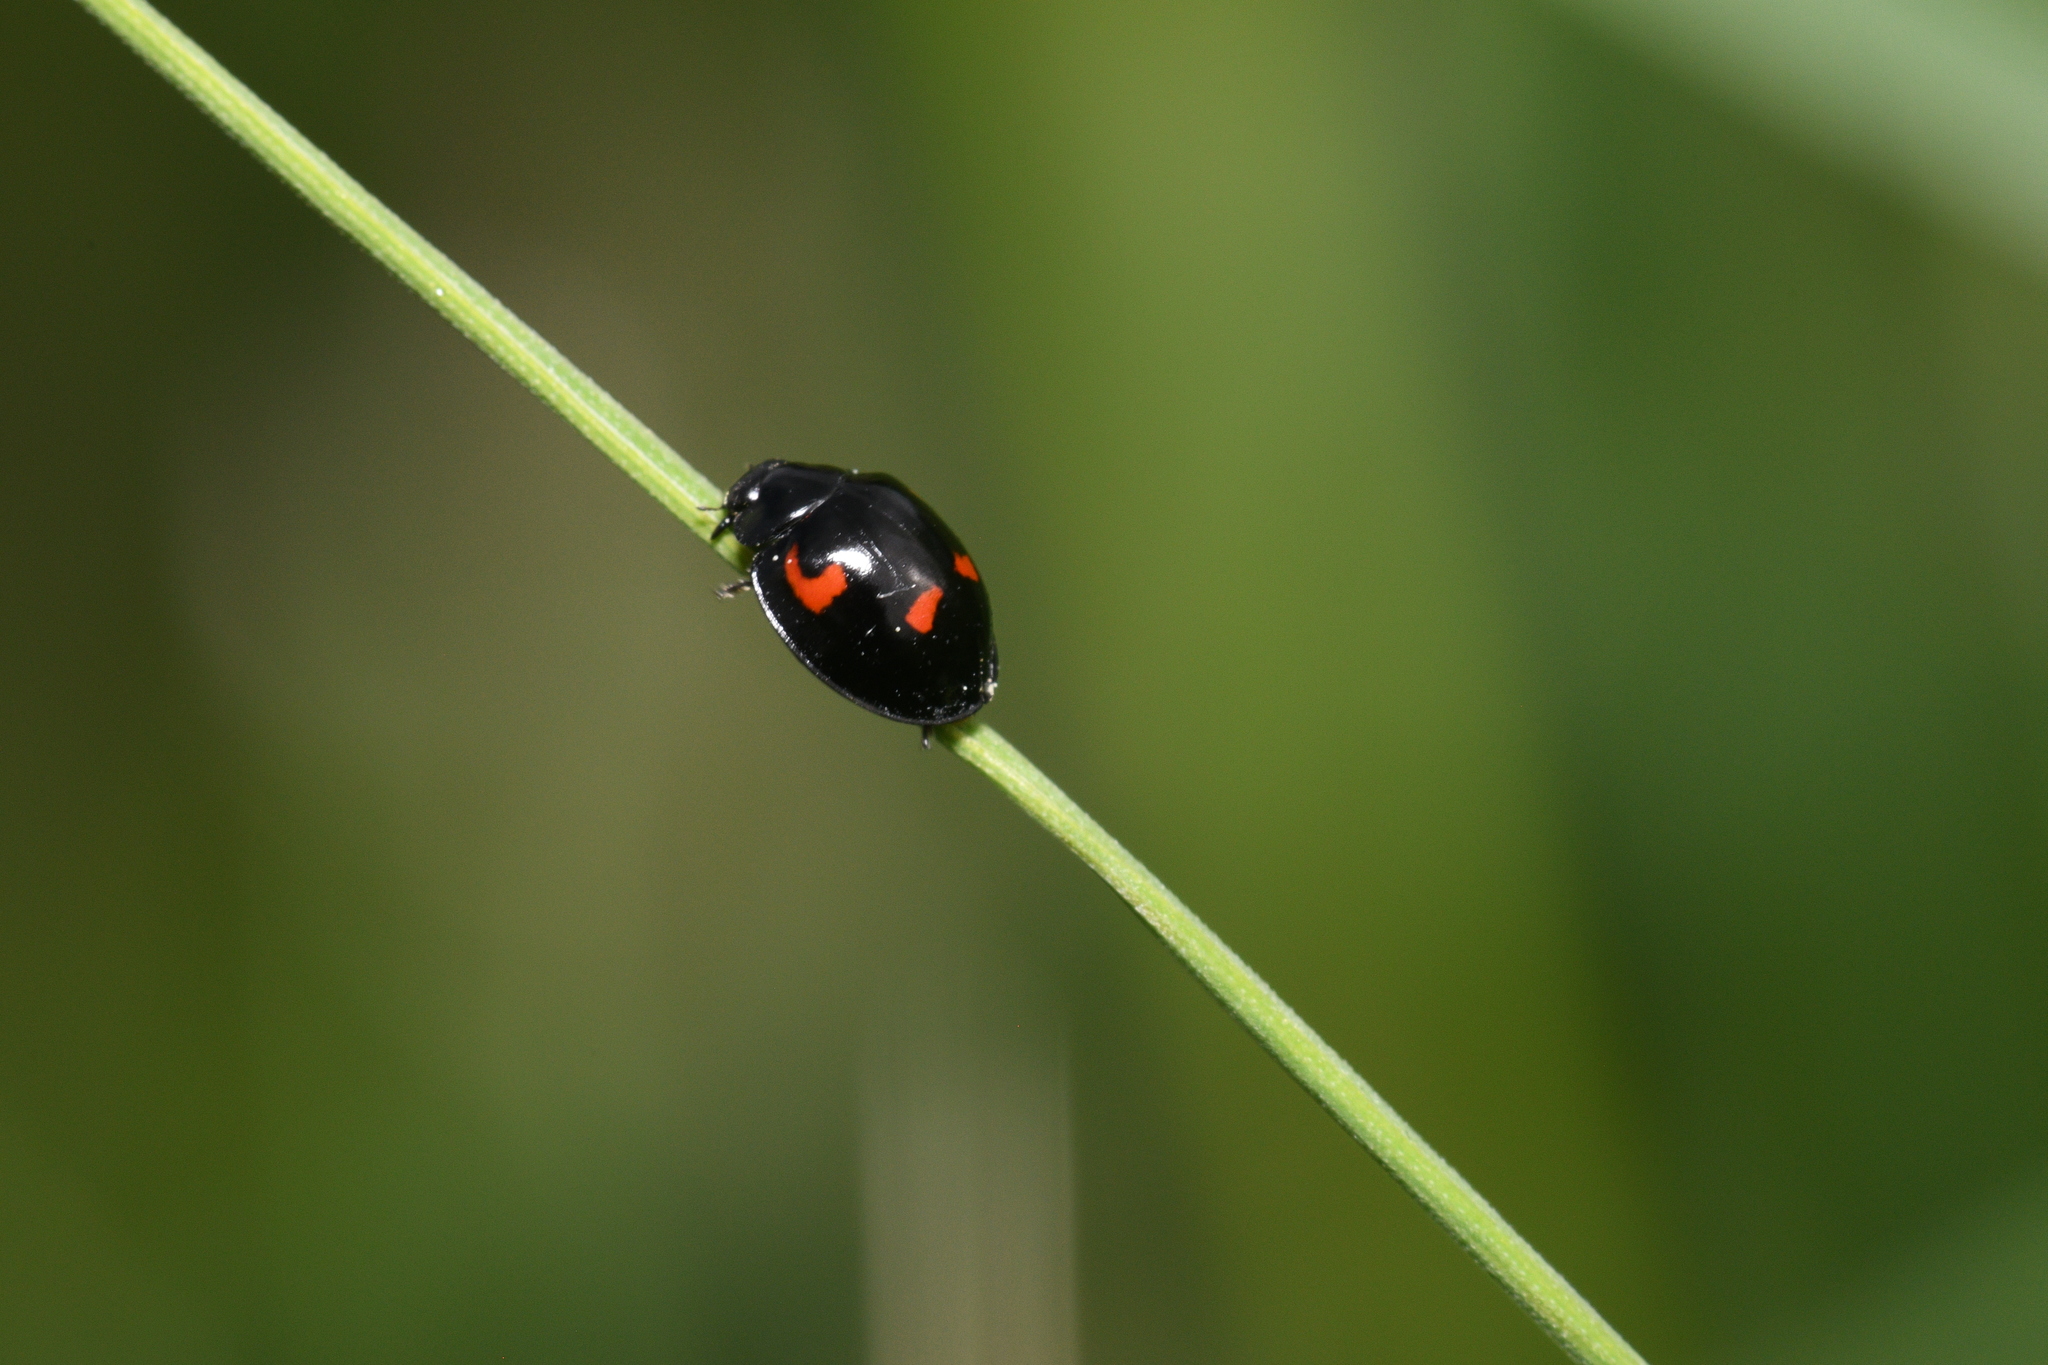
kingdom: Animalia
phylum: Arthropoda
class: Insecta
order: Coleoptera
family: Coccinellidae
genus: Brumus
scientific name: Brumus quadripustulatus
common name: Ladybird beetle
